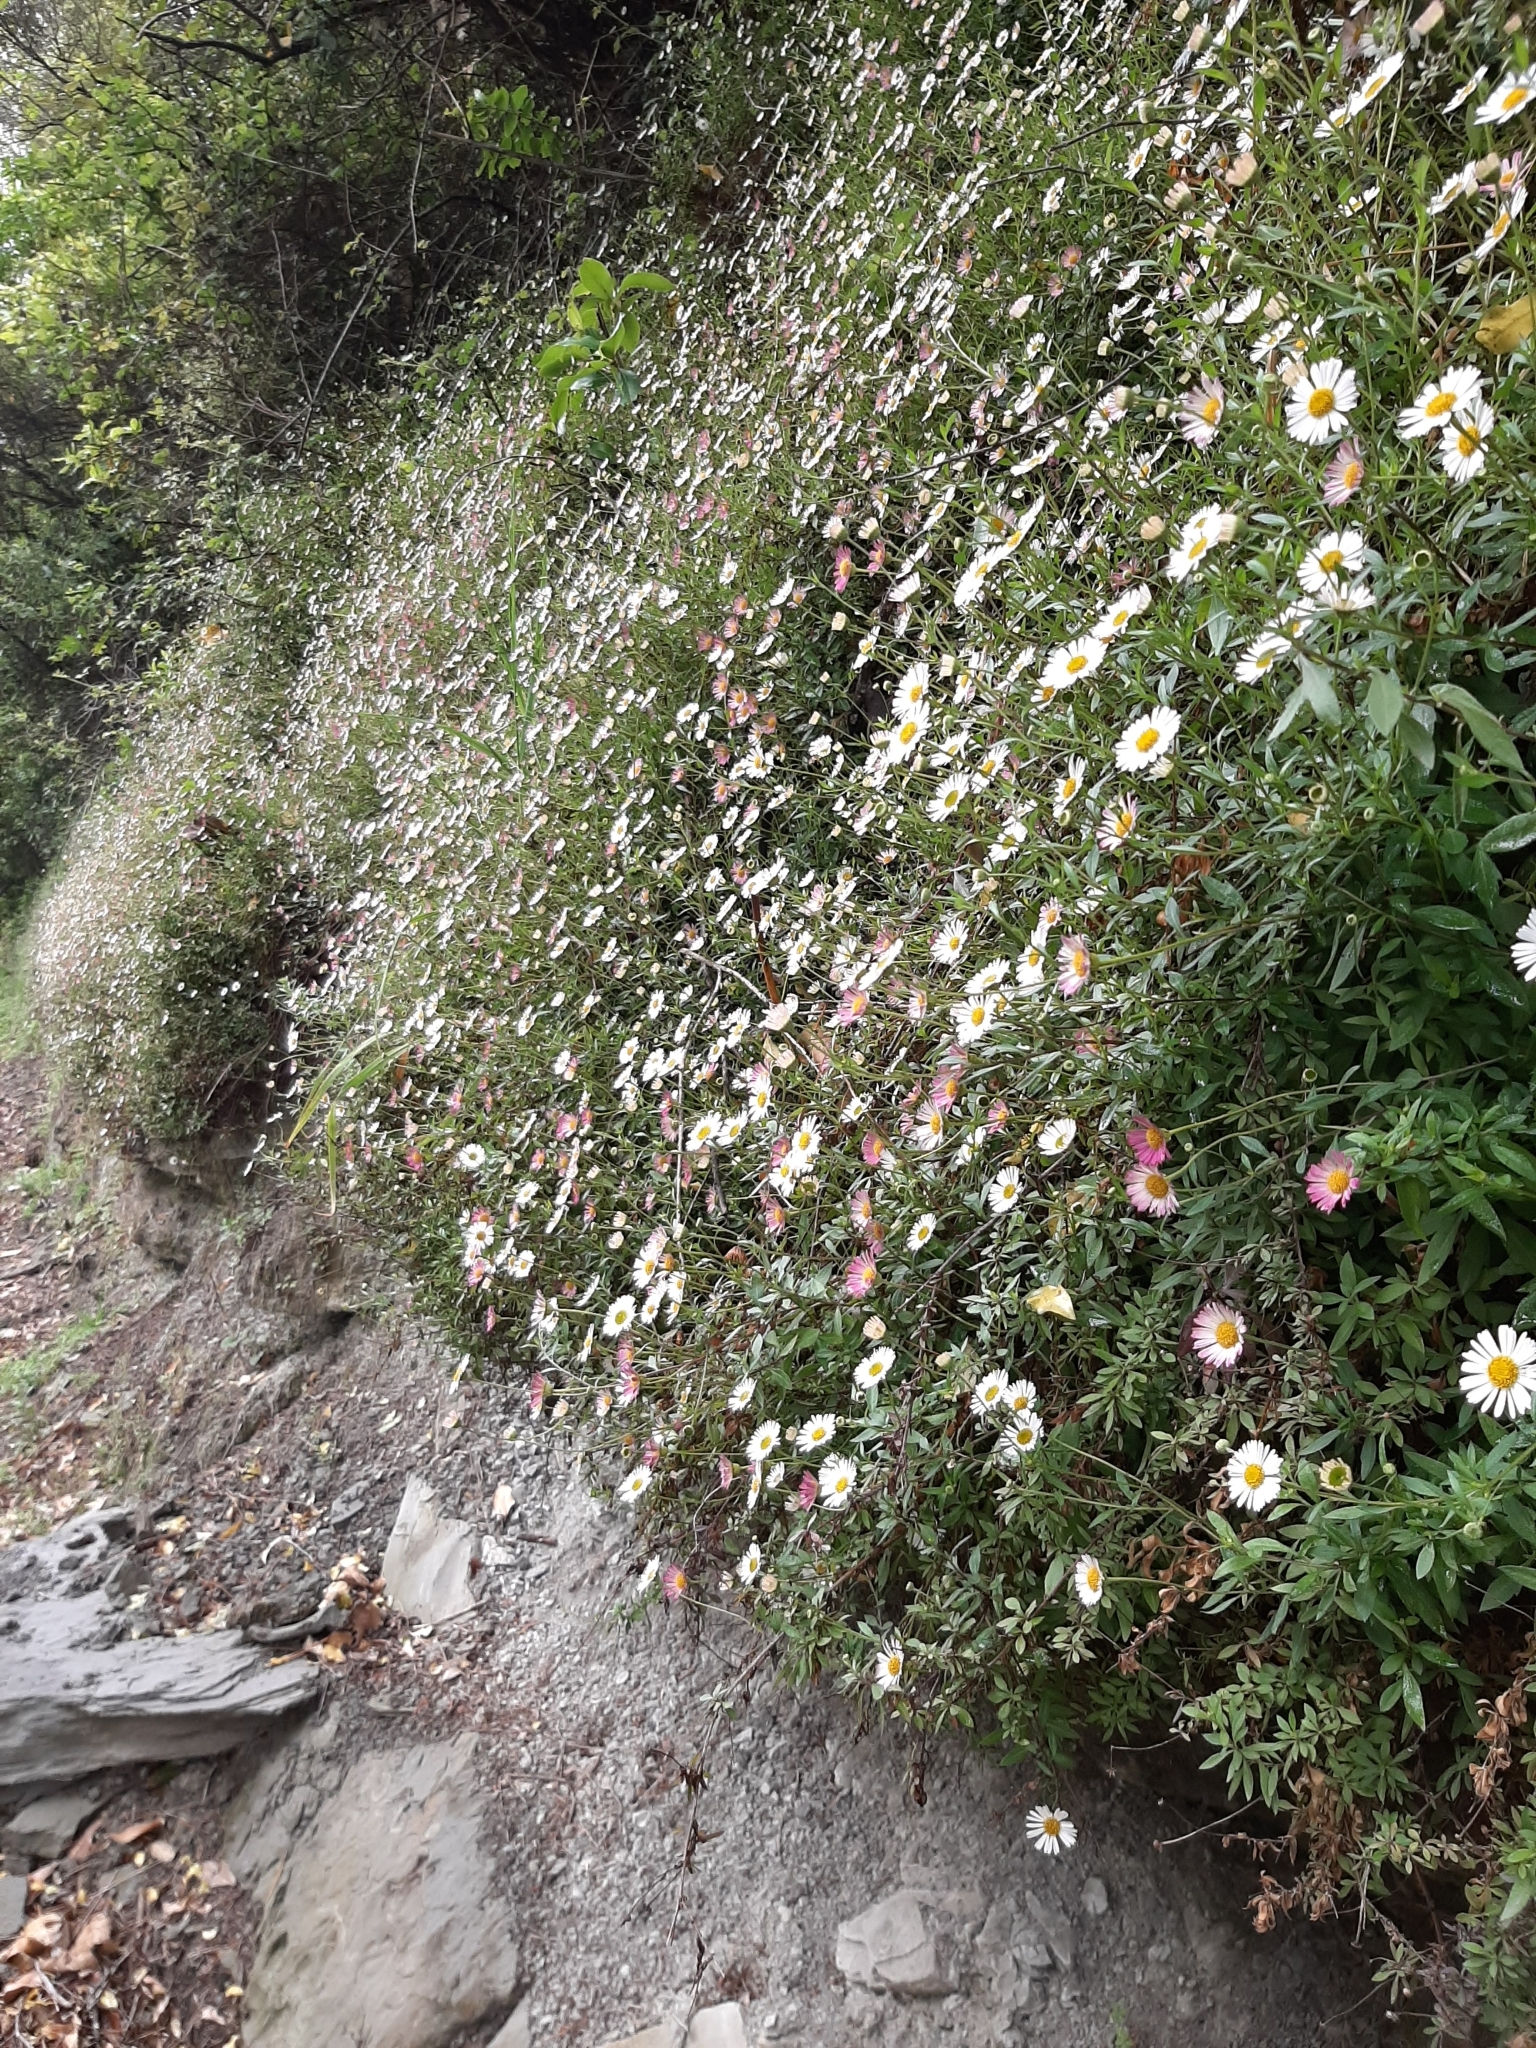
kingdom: Plantae
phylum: Tracheophyta
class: Magnoliopsida
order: Asterales
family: Asteraceae
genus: Erigeron
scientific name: Erigeron karvinskianus
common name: Mexican fleabane
